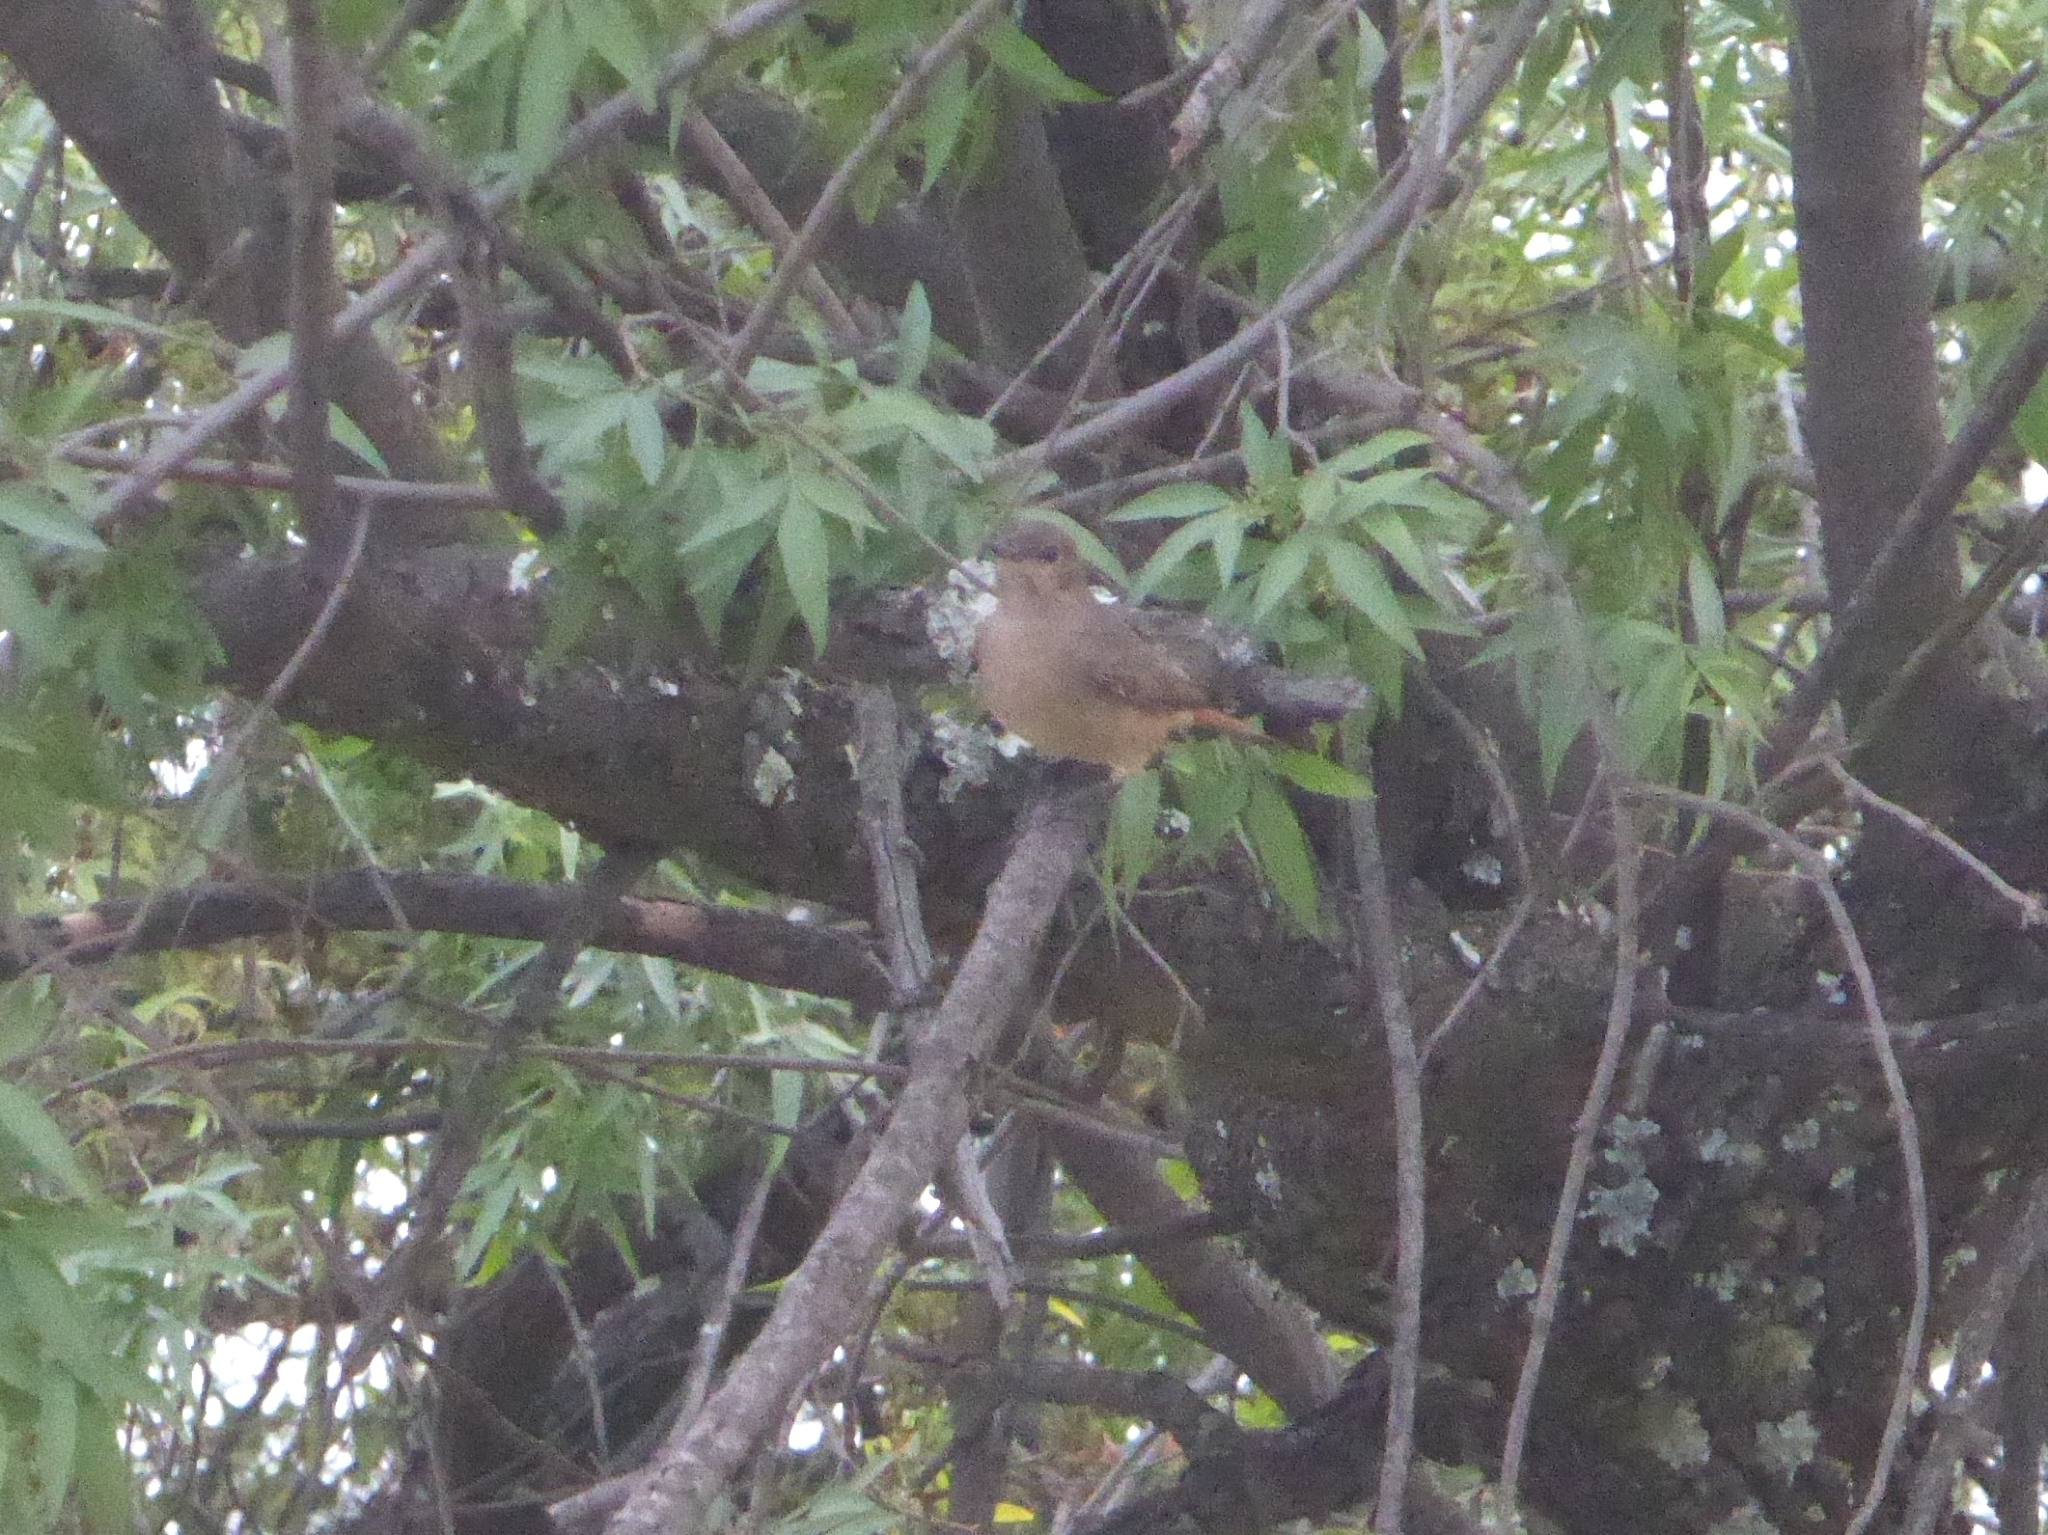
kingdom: Animalia
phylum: Chordata
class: Aves
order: Passeriformes
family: Muscicapidae
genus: Oenanthe
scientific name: Oenanthe familiaris
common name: Familiar chat
